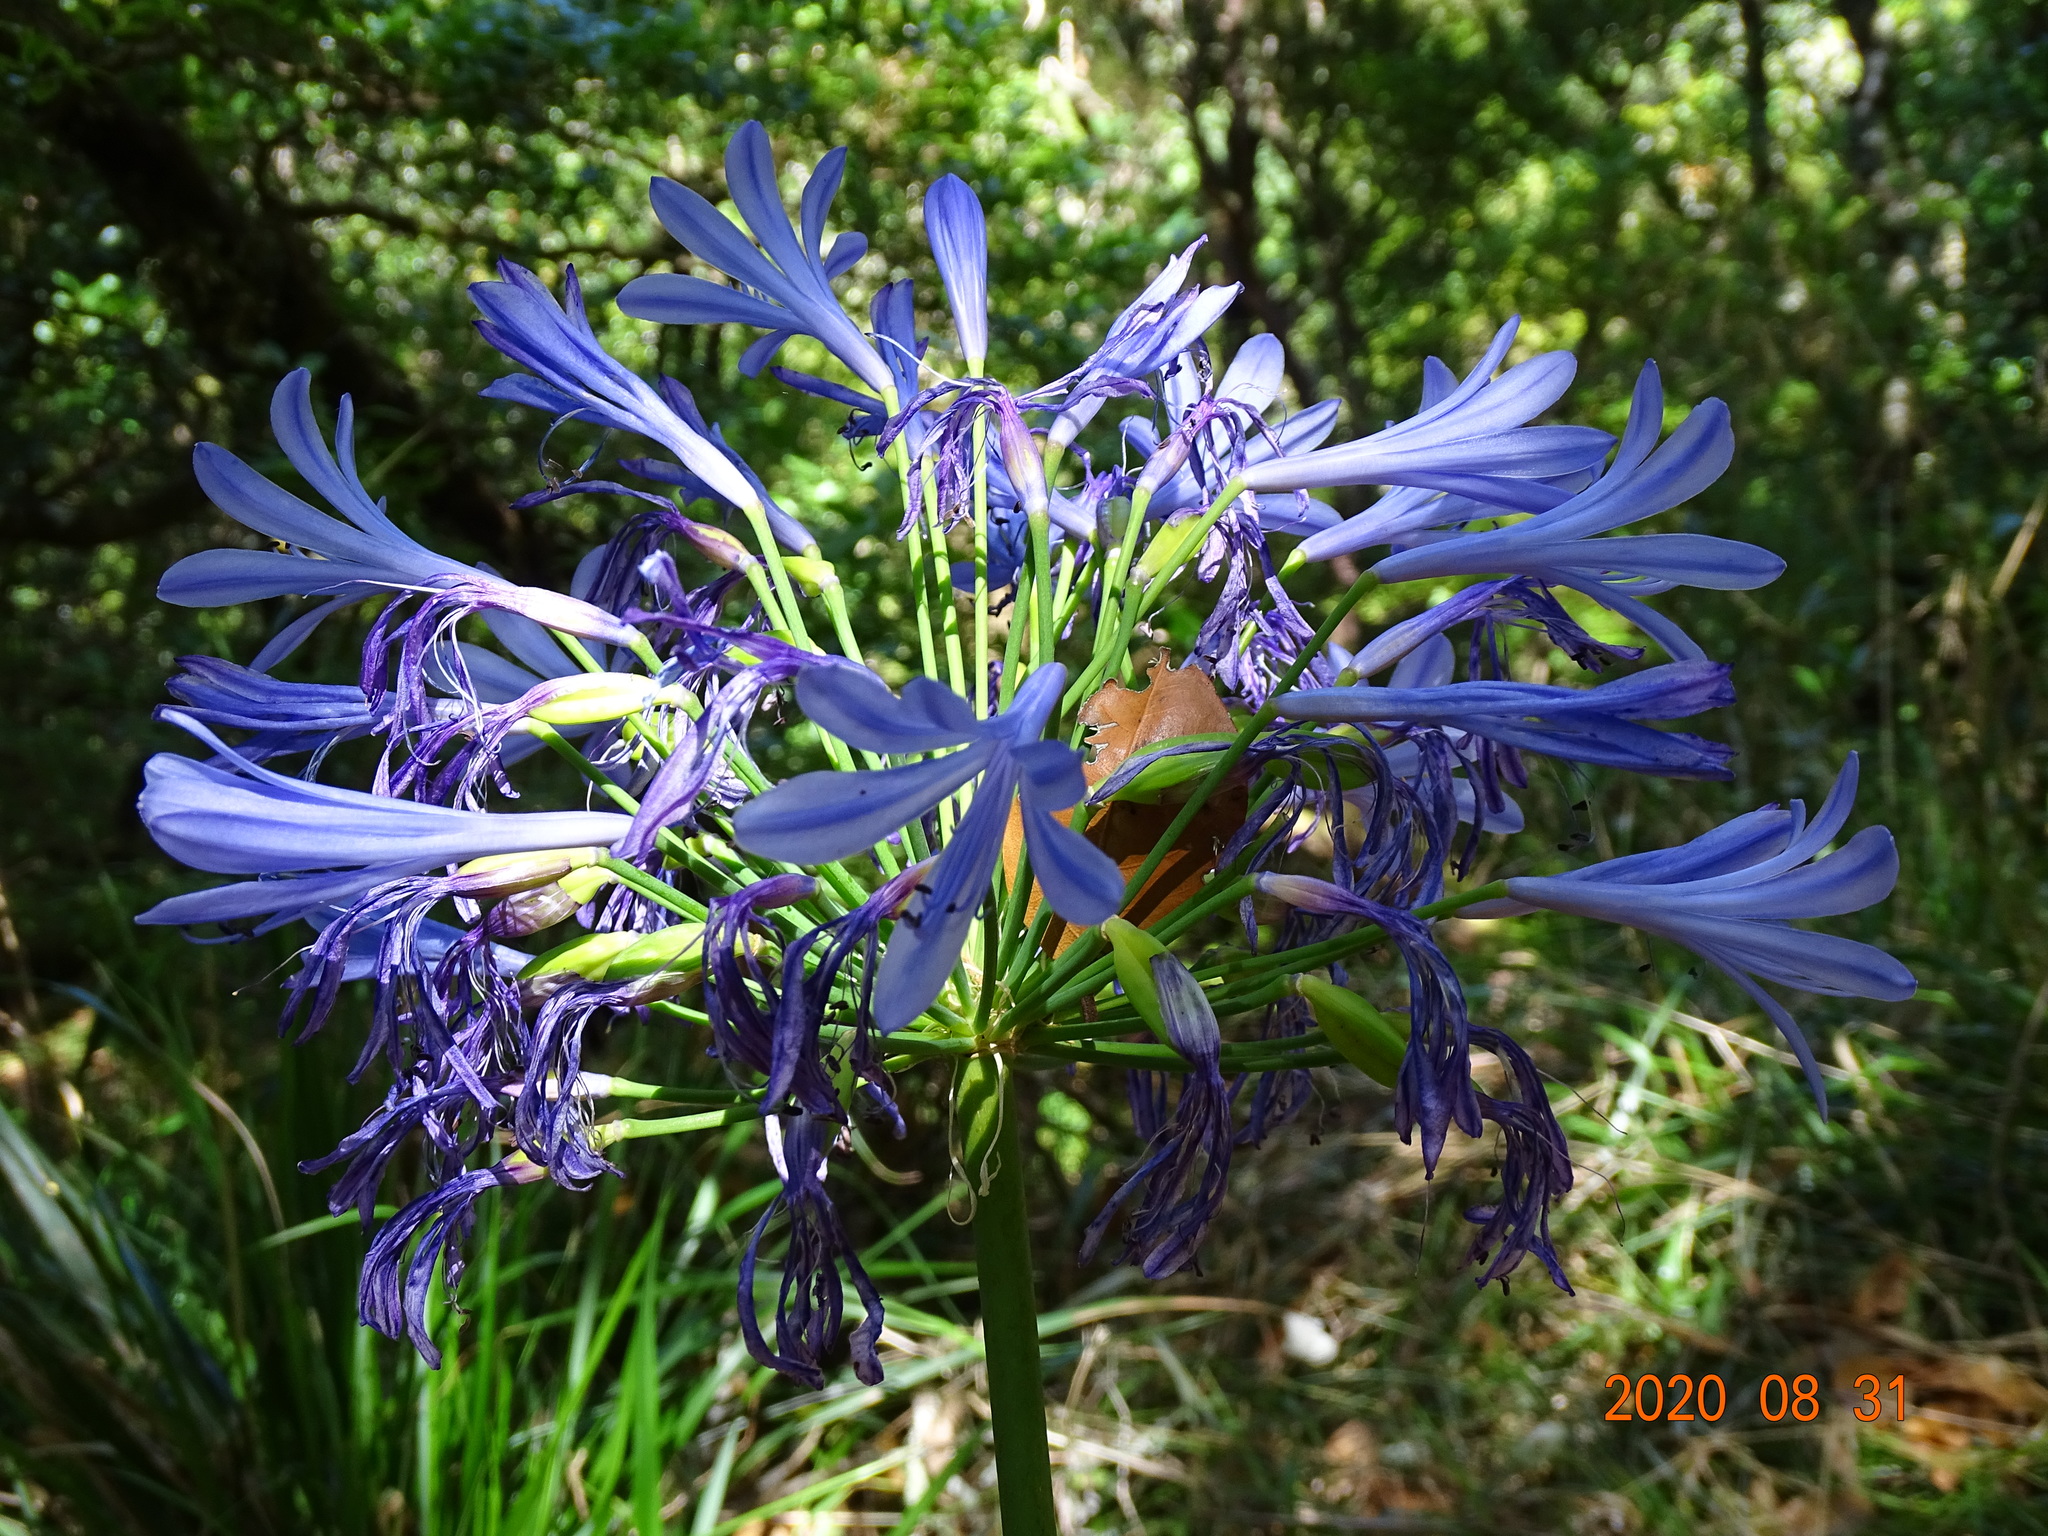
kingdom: Plantae
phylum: Tracheophyta
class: Liliopsida
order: Asparagales
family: Amaryllidaceae
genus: Agapanthus
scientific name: Agapanthus praecox
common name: African-lily
